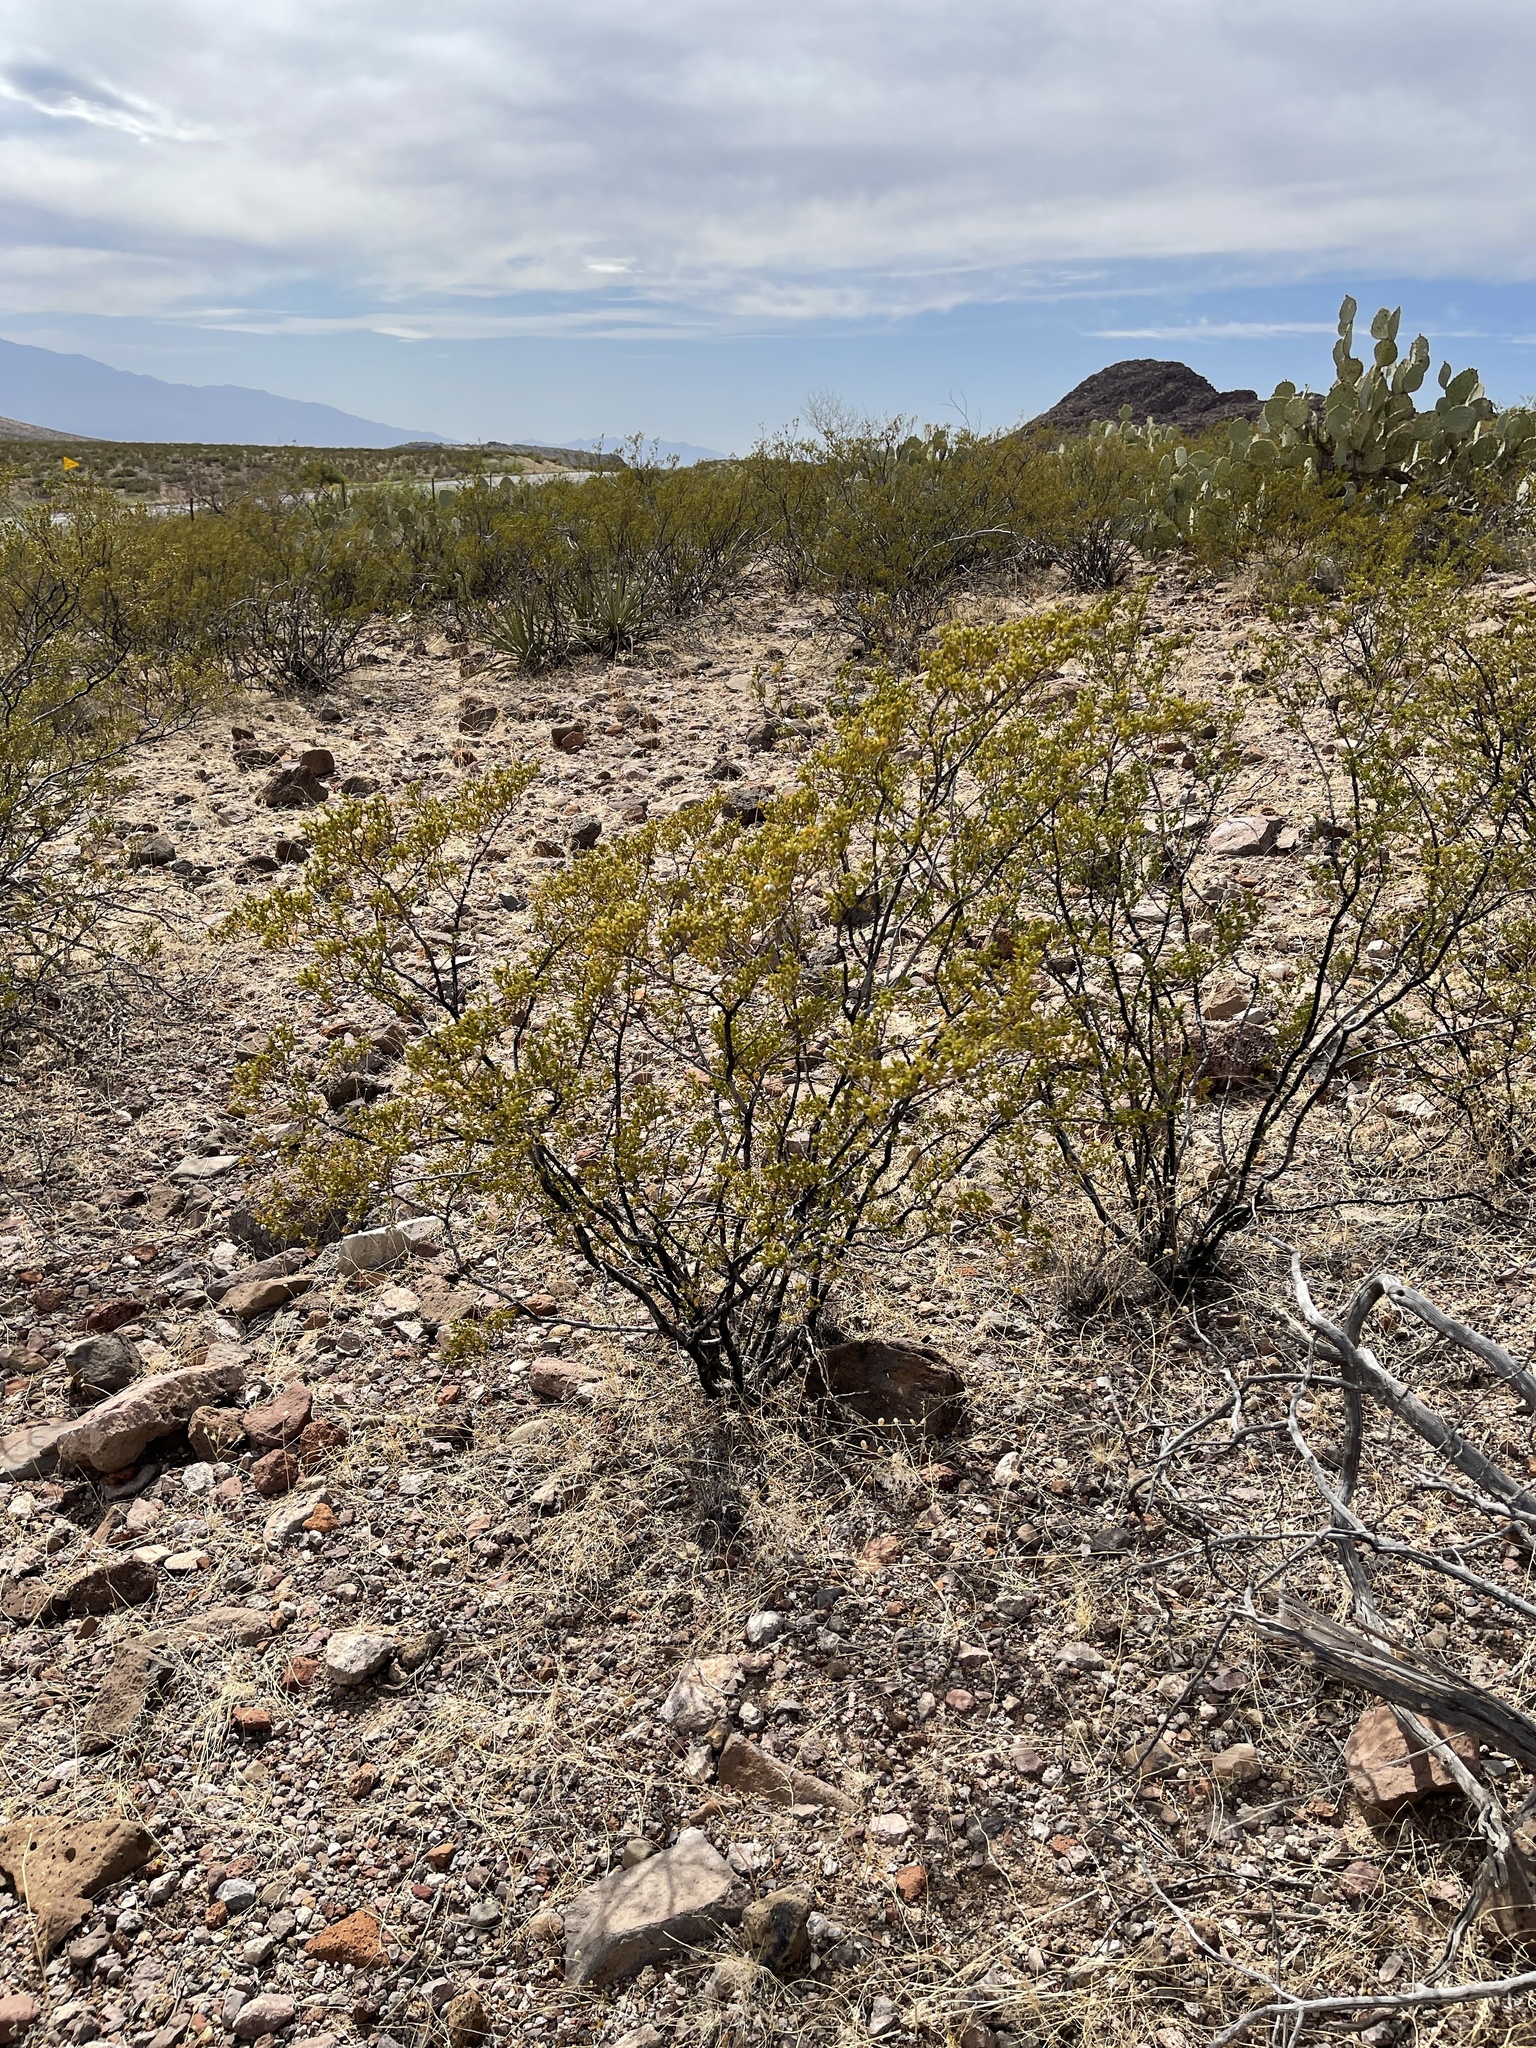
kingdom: Plantae
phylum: Tracheophyta
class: Magnoliopsida
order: Zygophyllales
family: Zygophyllaceae
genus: Larrea
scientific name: Larrea tridentata
